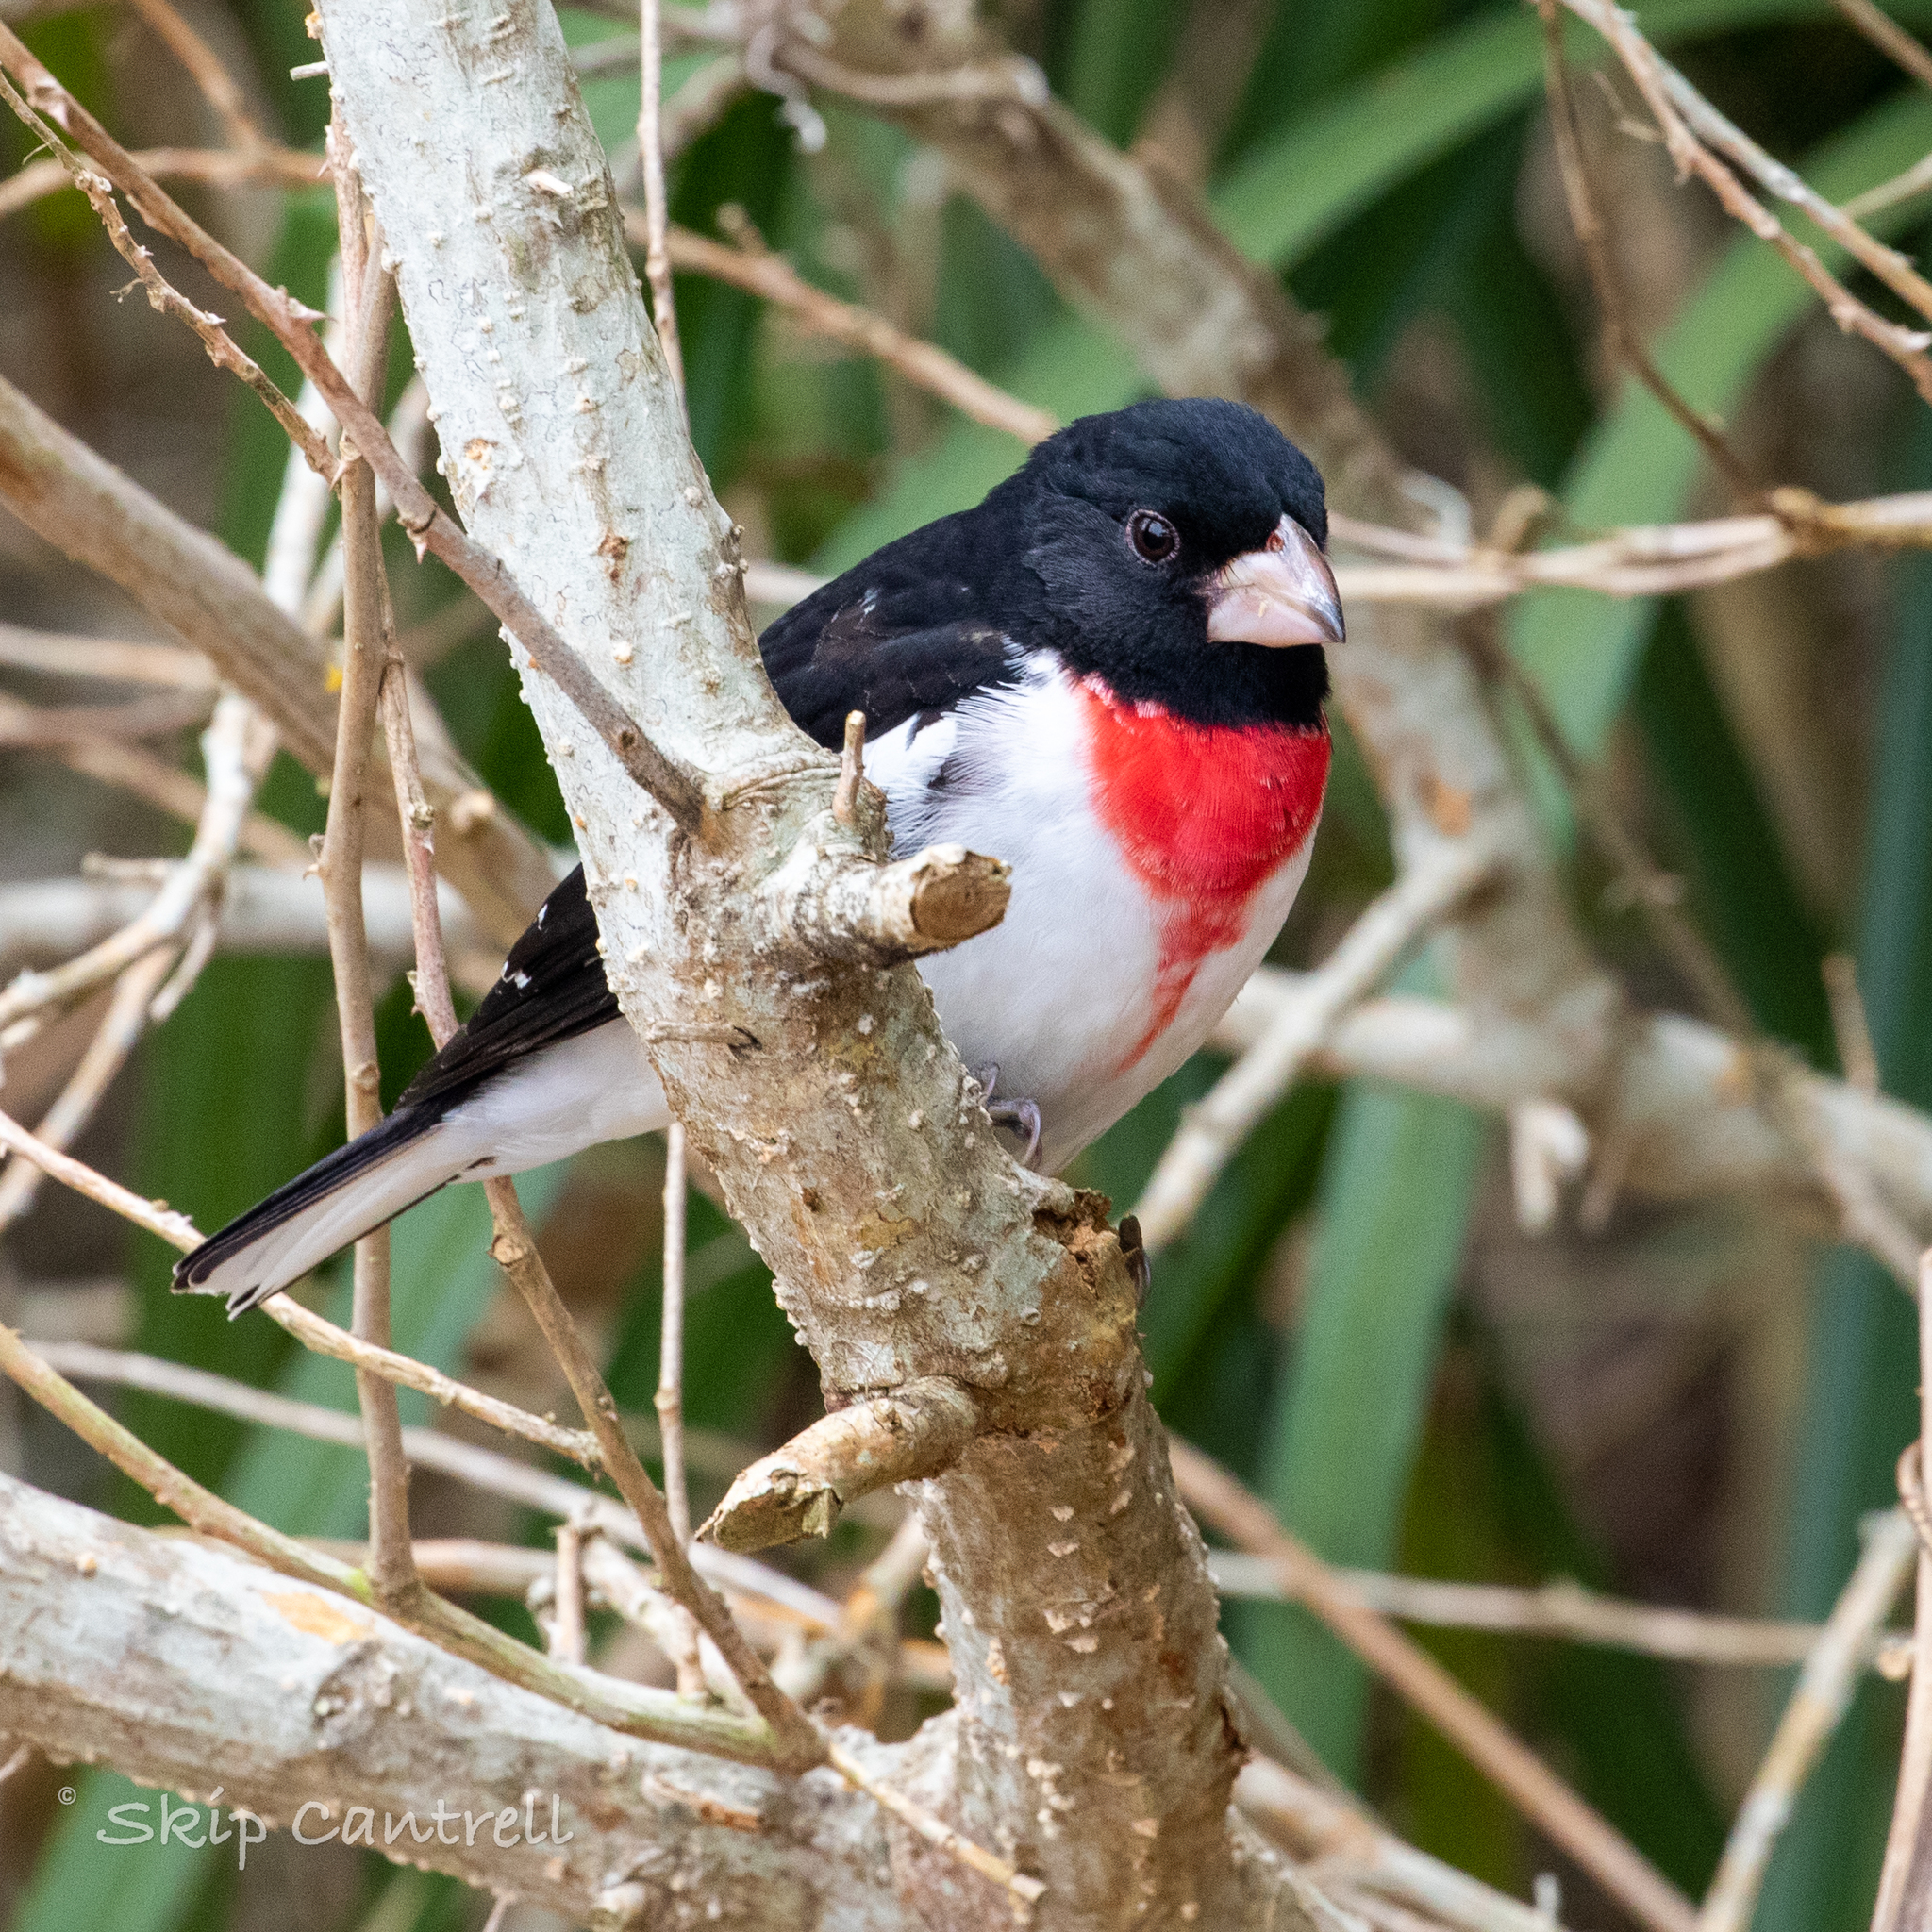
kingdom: Animalia
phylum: Chordata
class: Aves
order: Passeriformes
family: Cardinalidae
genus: Pheucticus
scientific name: Pheucticus ludovicianus
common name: Rose-breasted grosbeak
